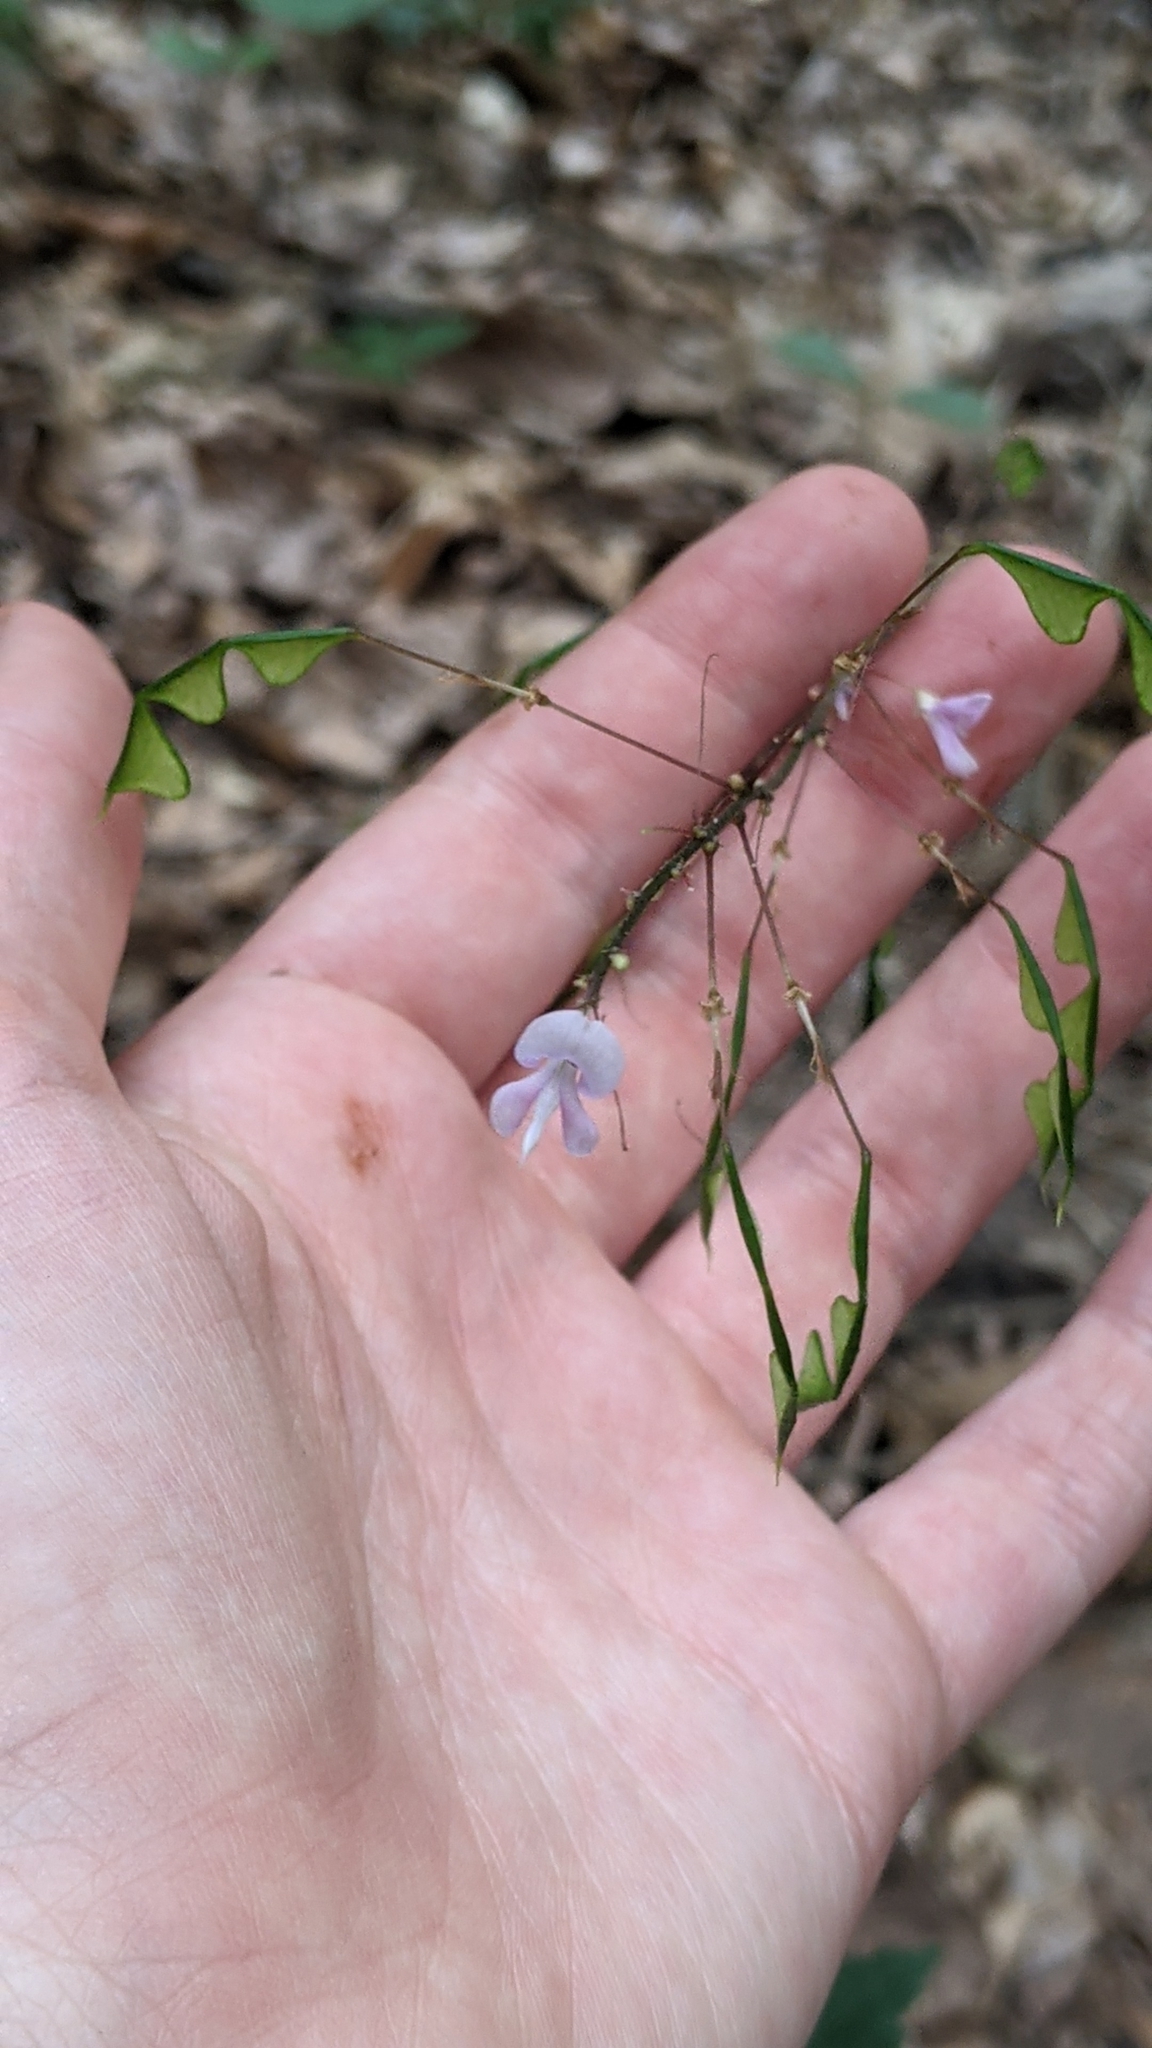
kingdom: Plantae
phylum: Tracheophyta
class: Magnoliopsida
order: Fabales
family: Fabaceae
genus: Hylodesmum
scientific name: Hylodesmum nudiflorum
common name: Bare-stemmed tick-trefoil
